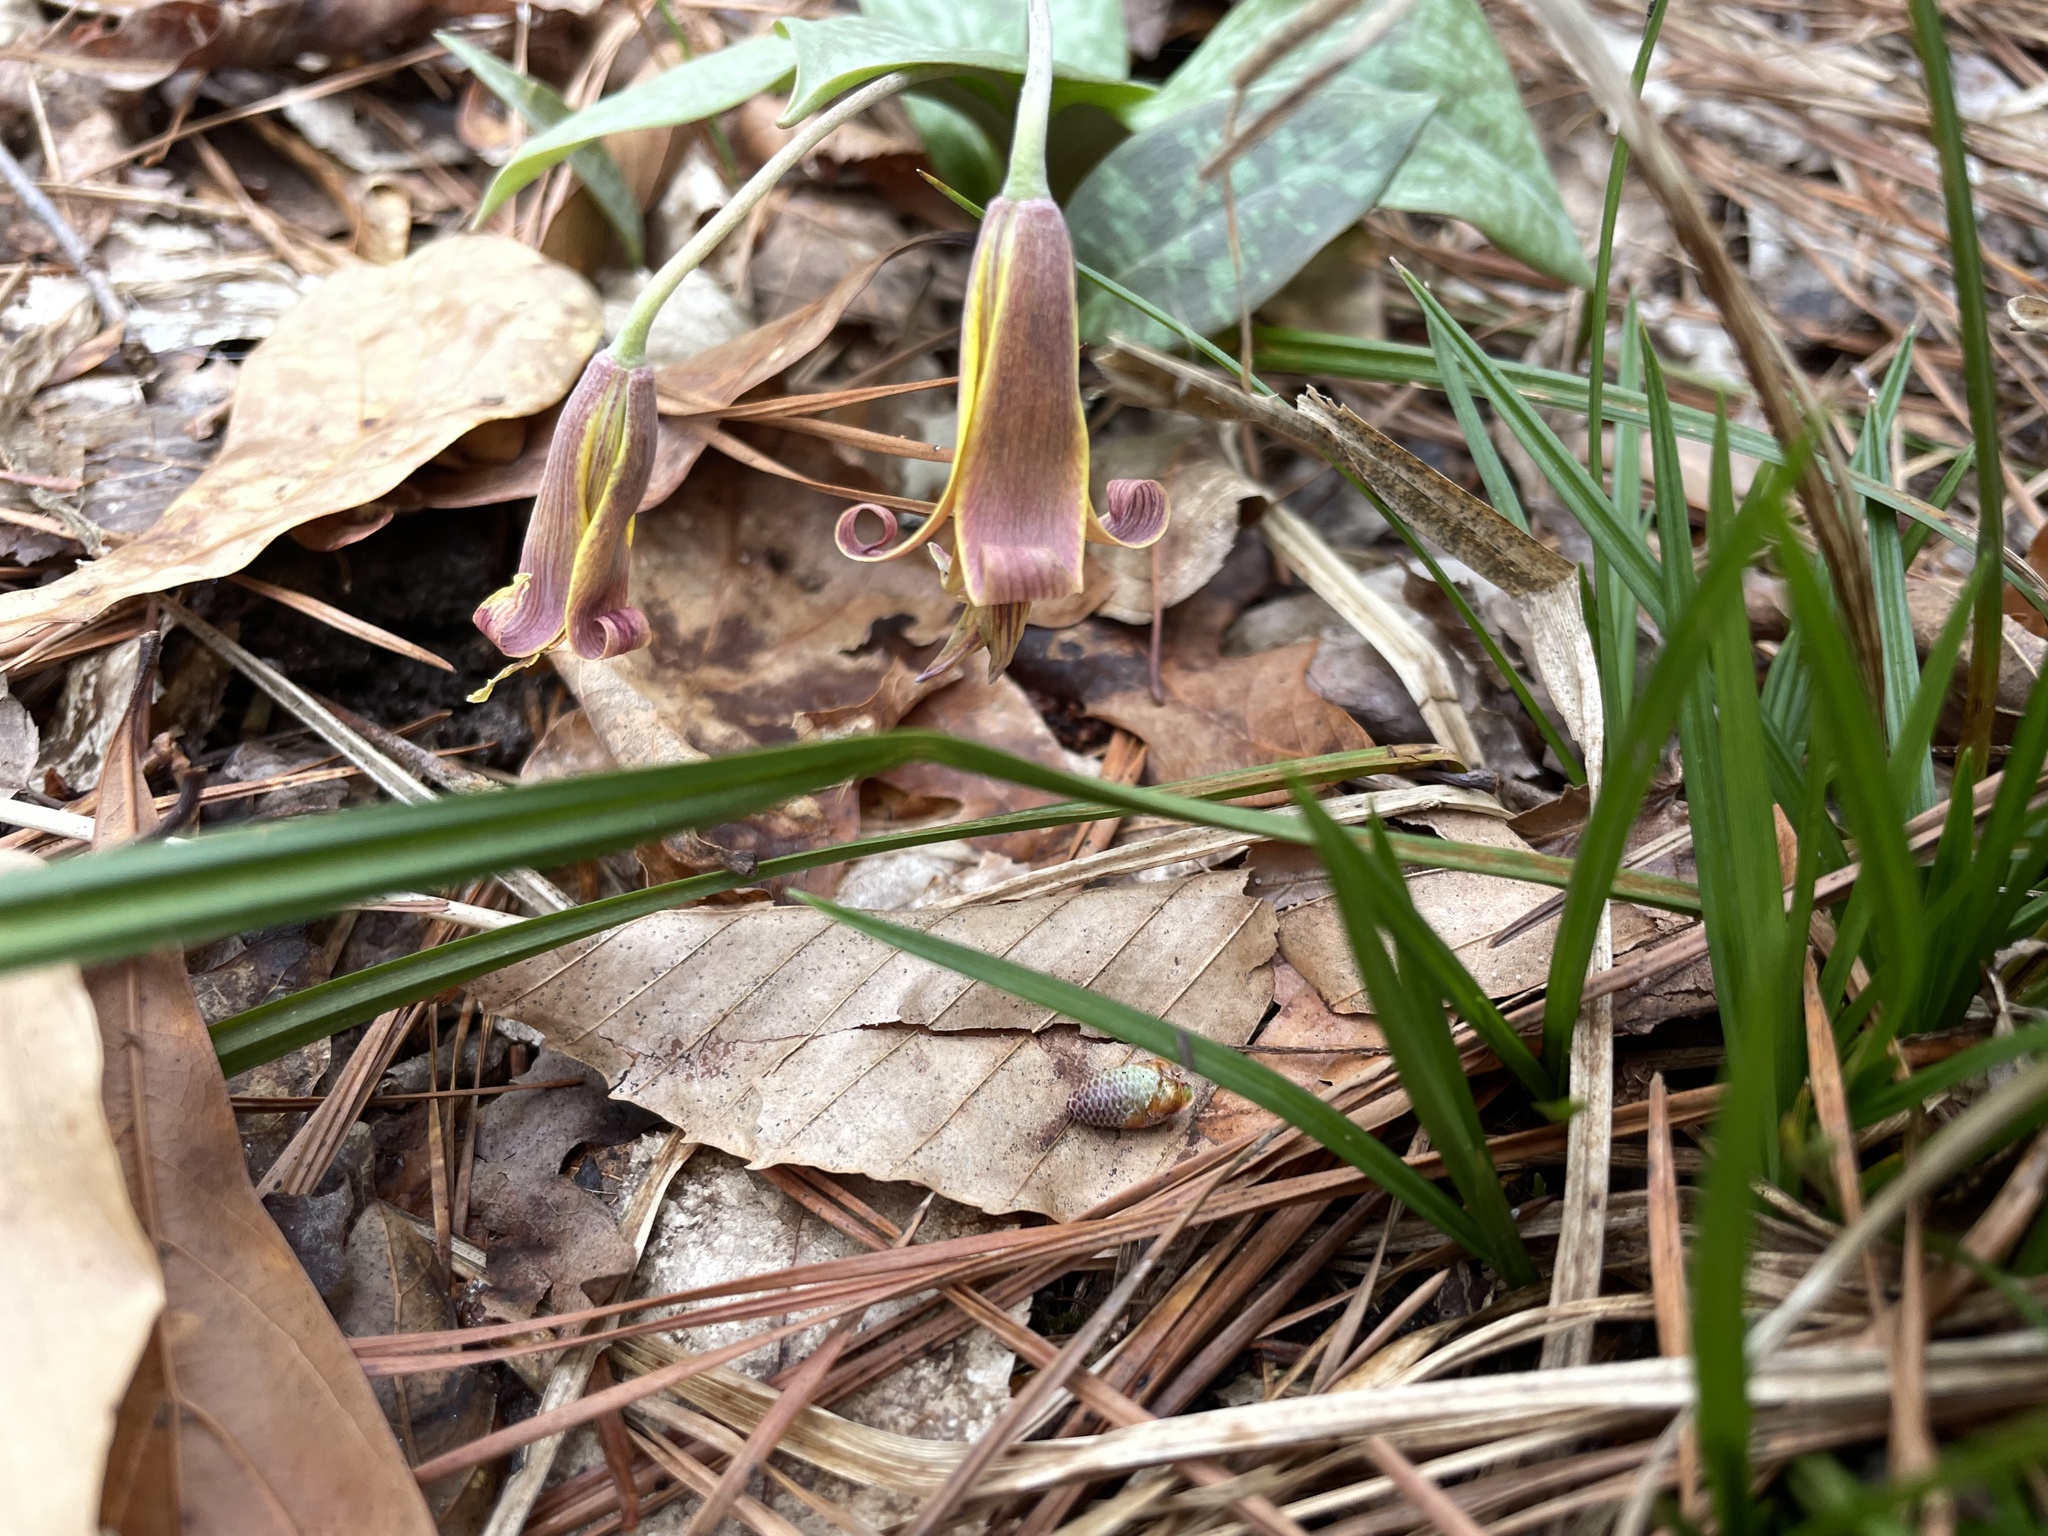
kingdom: Plantae
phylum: Tracheophyta
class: Liliopsida
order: Liliales
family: Liliaceae
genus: Erythronium
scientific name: Erythronium umbilicatum
